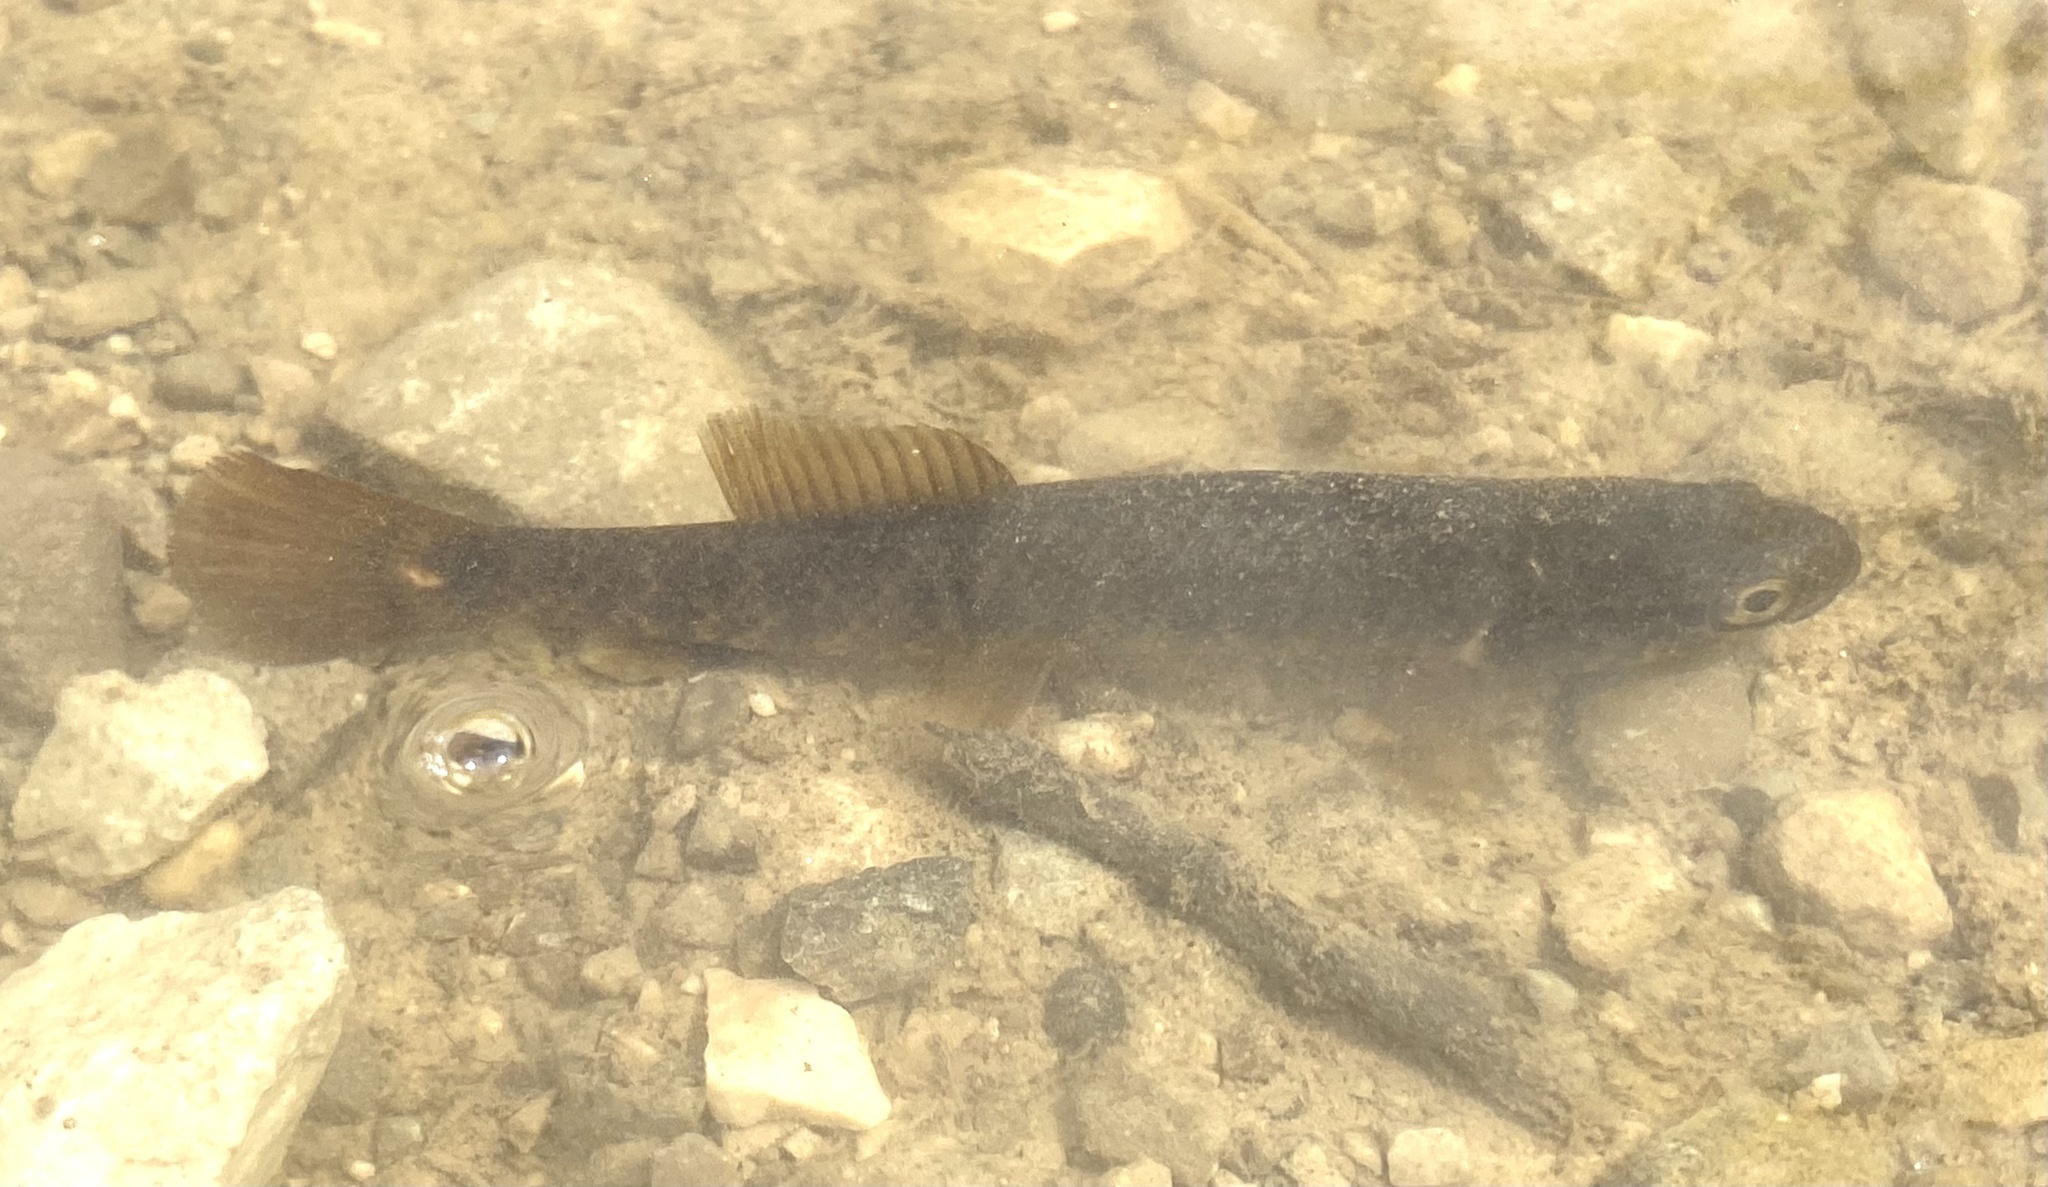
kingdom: Animalia
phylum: Chordata
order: Esociformes
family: Umbridae
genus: Umbra
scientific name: Umbra limi
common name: Central mudminnow
